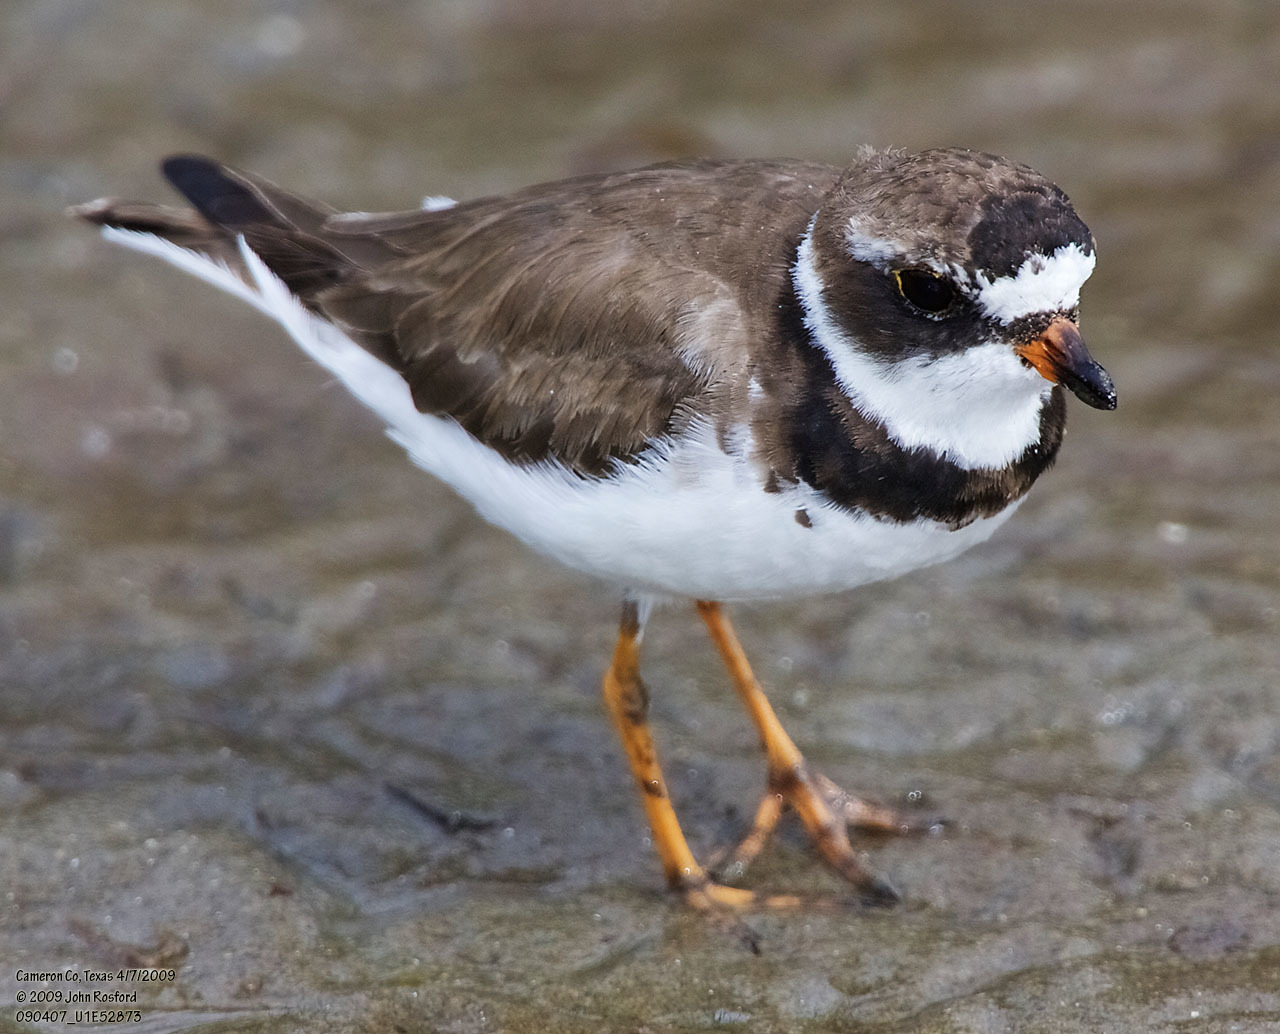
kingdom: Animalia
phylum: Chordata
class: Aves
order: Charadriiformes
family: Charadriidae
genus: Charadrius
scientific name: Charadrius semipalmatus
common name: Semipalmated plover
